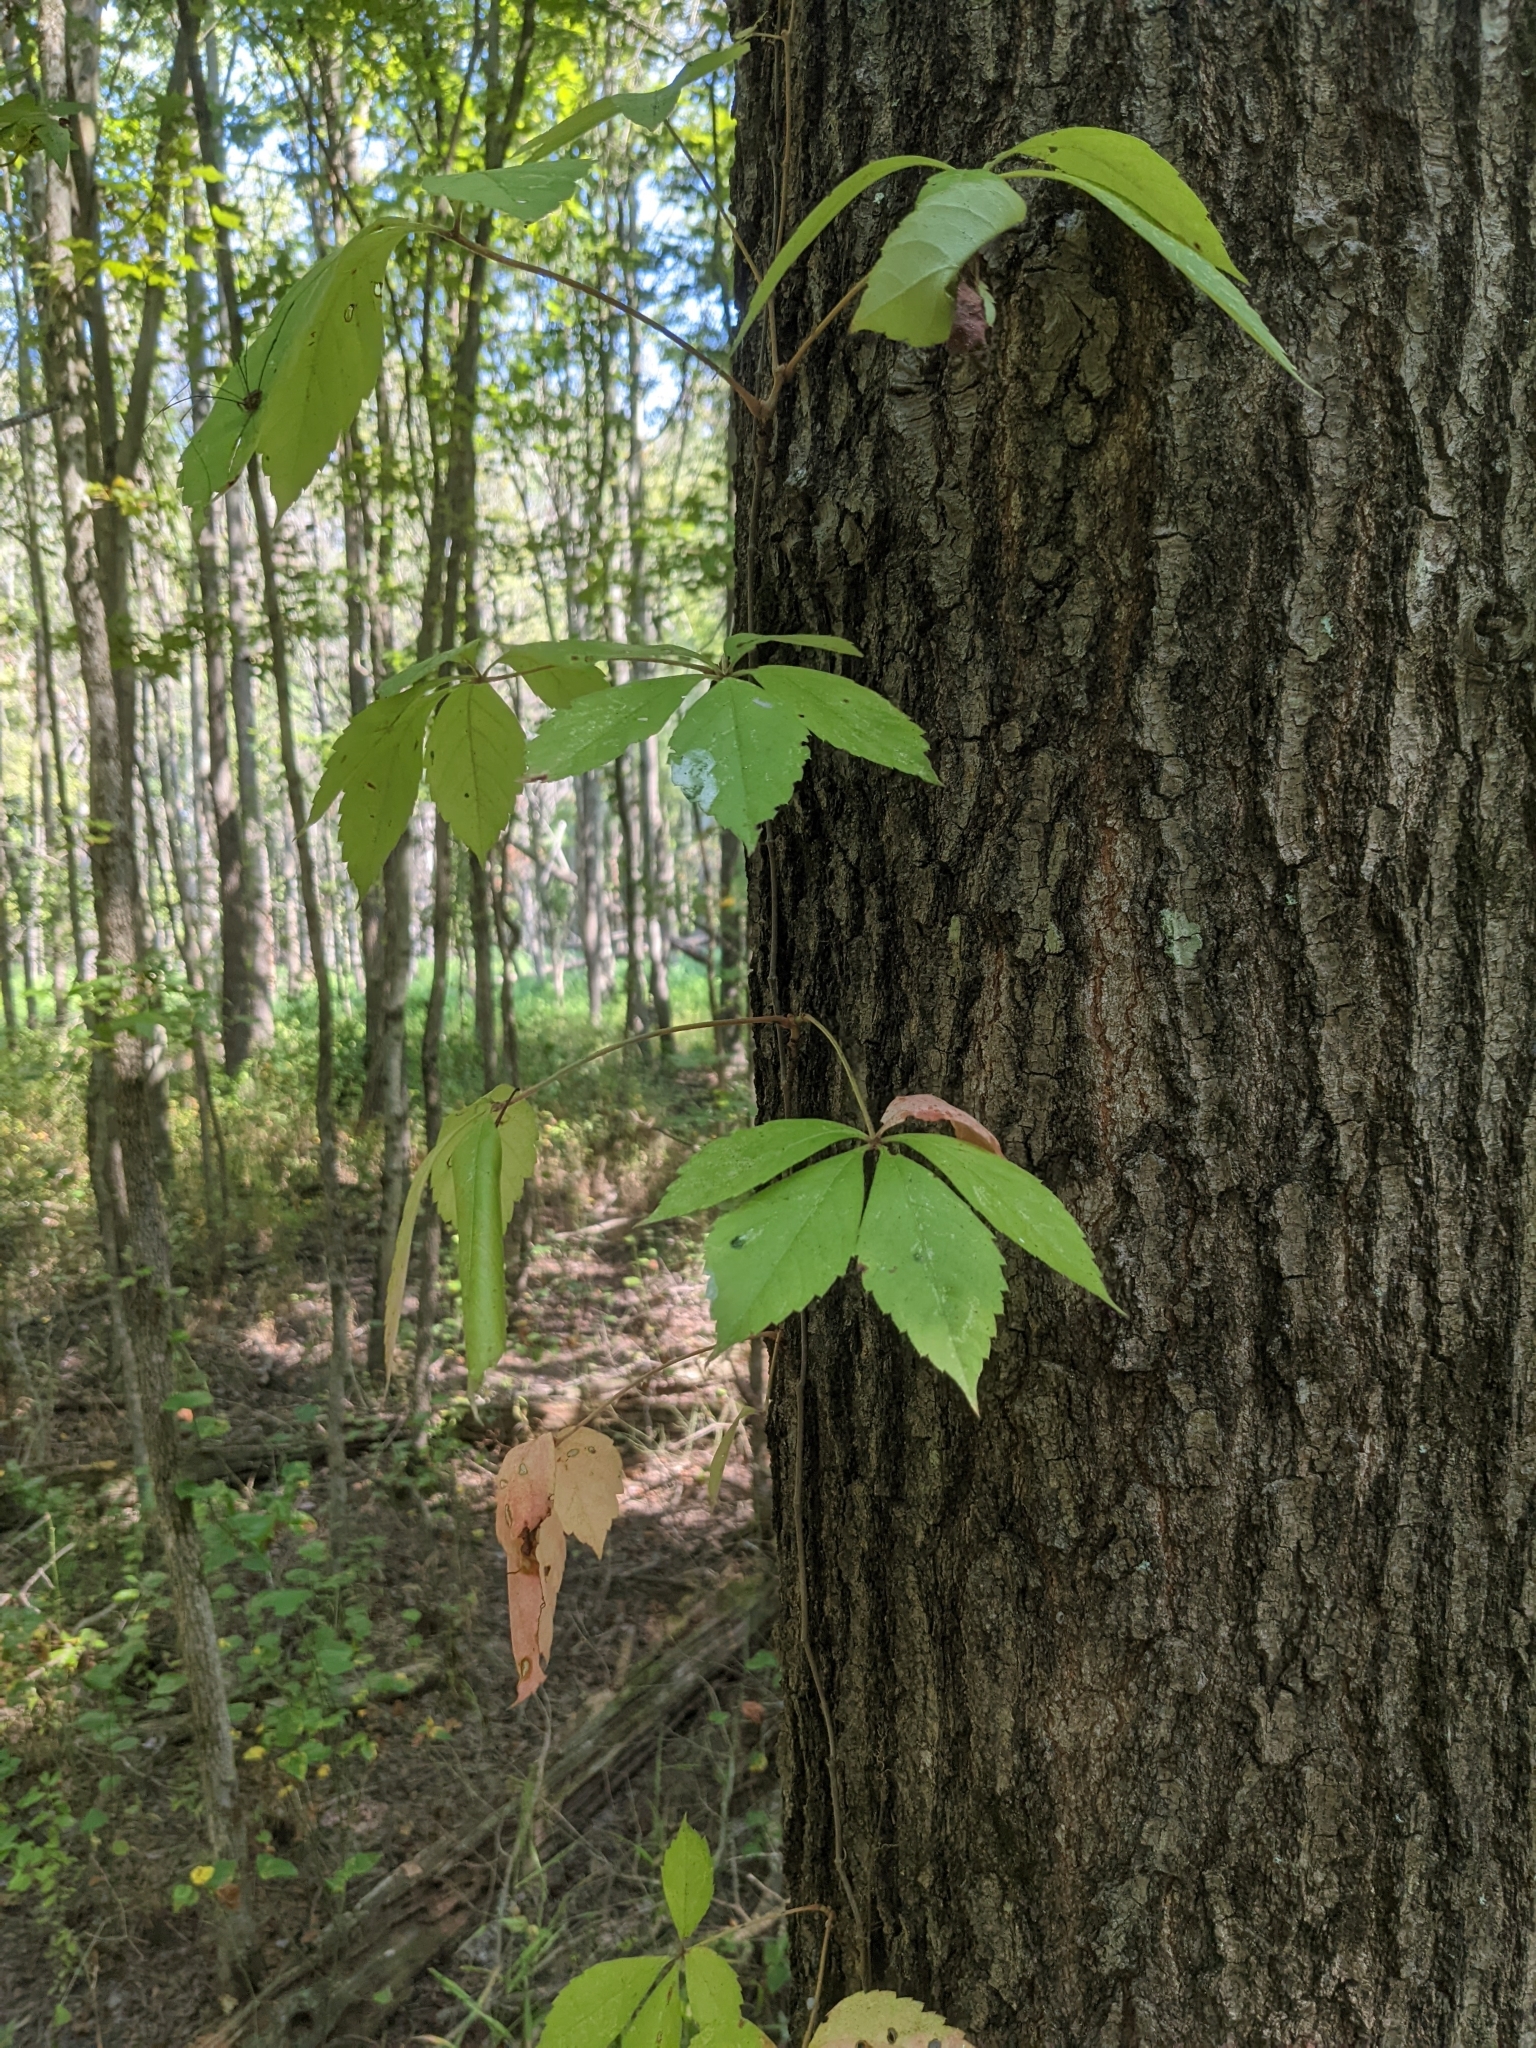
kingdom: Plantae
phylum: Tracheophyta
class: Magnoliopsida
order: Vitales
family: Vitaceae
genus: Parthenocissus
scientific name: Parthenocissus quinquefolia
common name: Virginia-creeper
